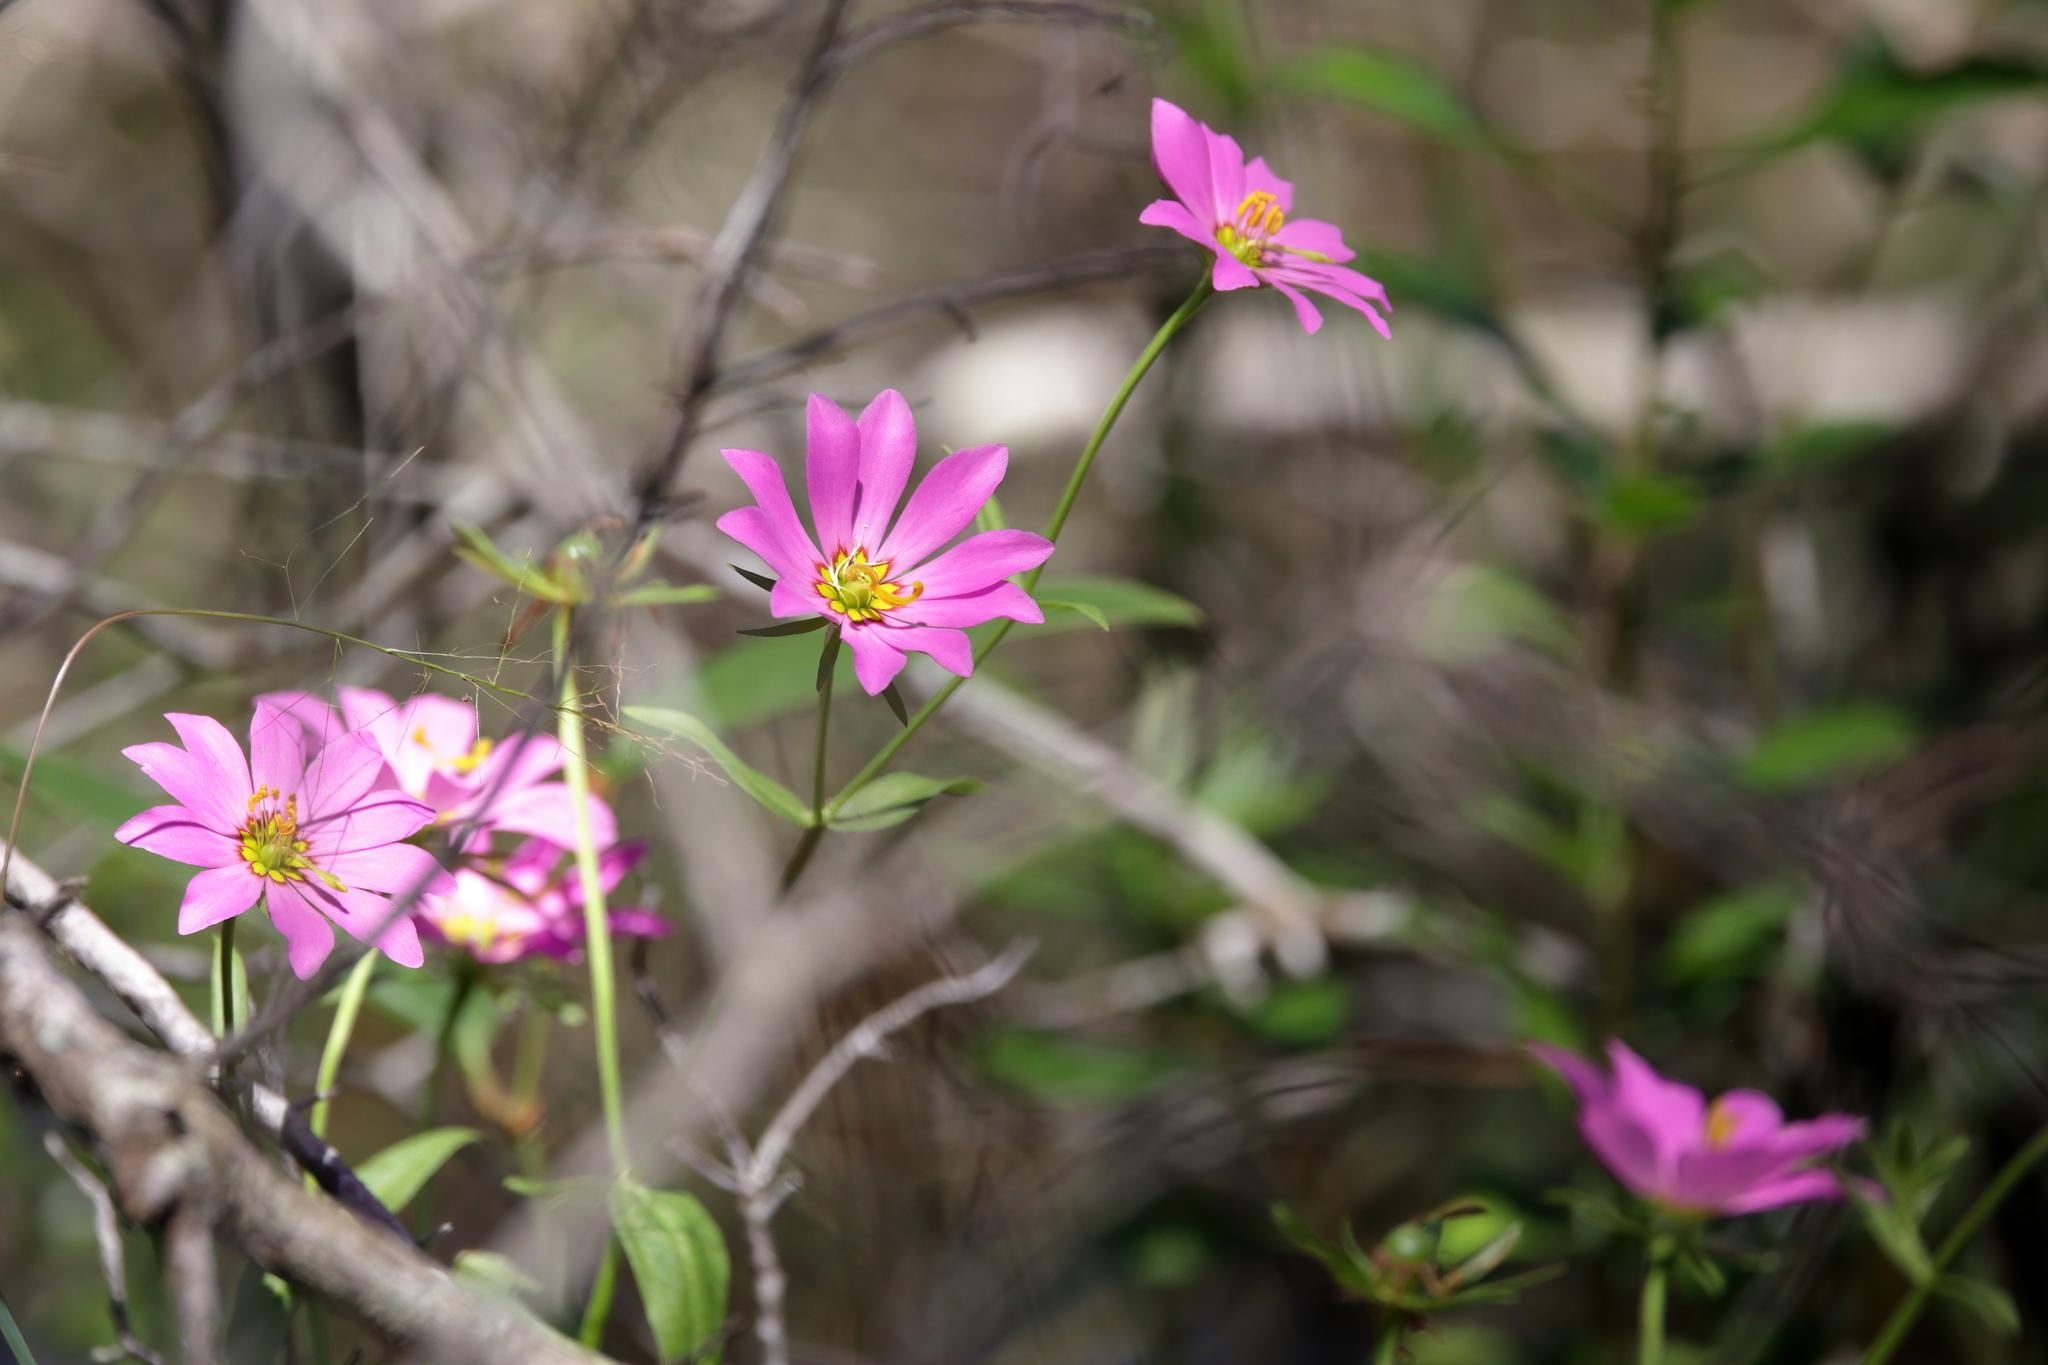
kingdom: Plantae
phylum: Tracheophyta
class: Magnoliopsida
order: Gentianales
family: Gentianaceae
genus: Sabatia
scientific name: Sabatia foliosa
